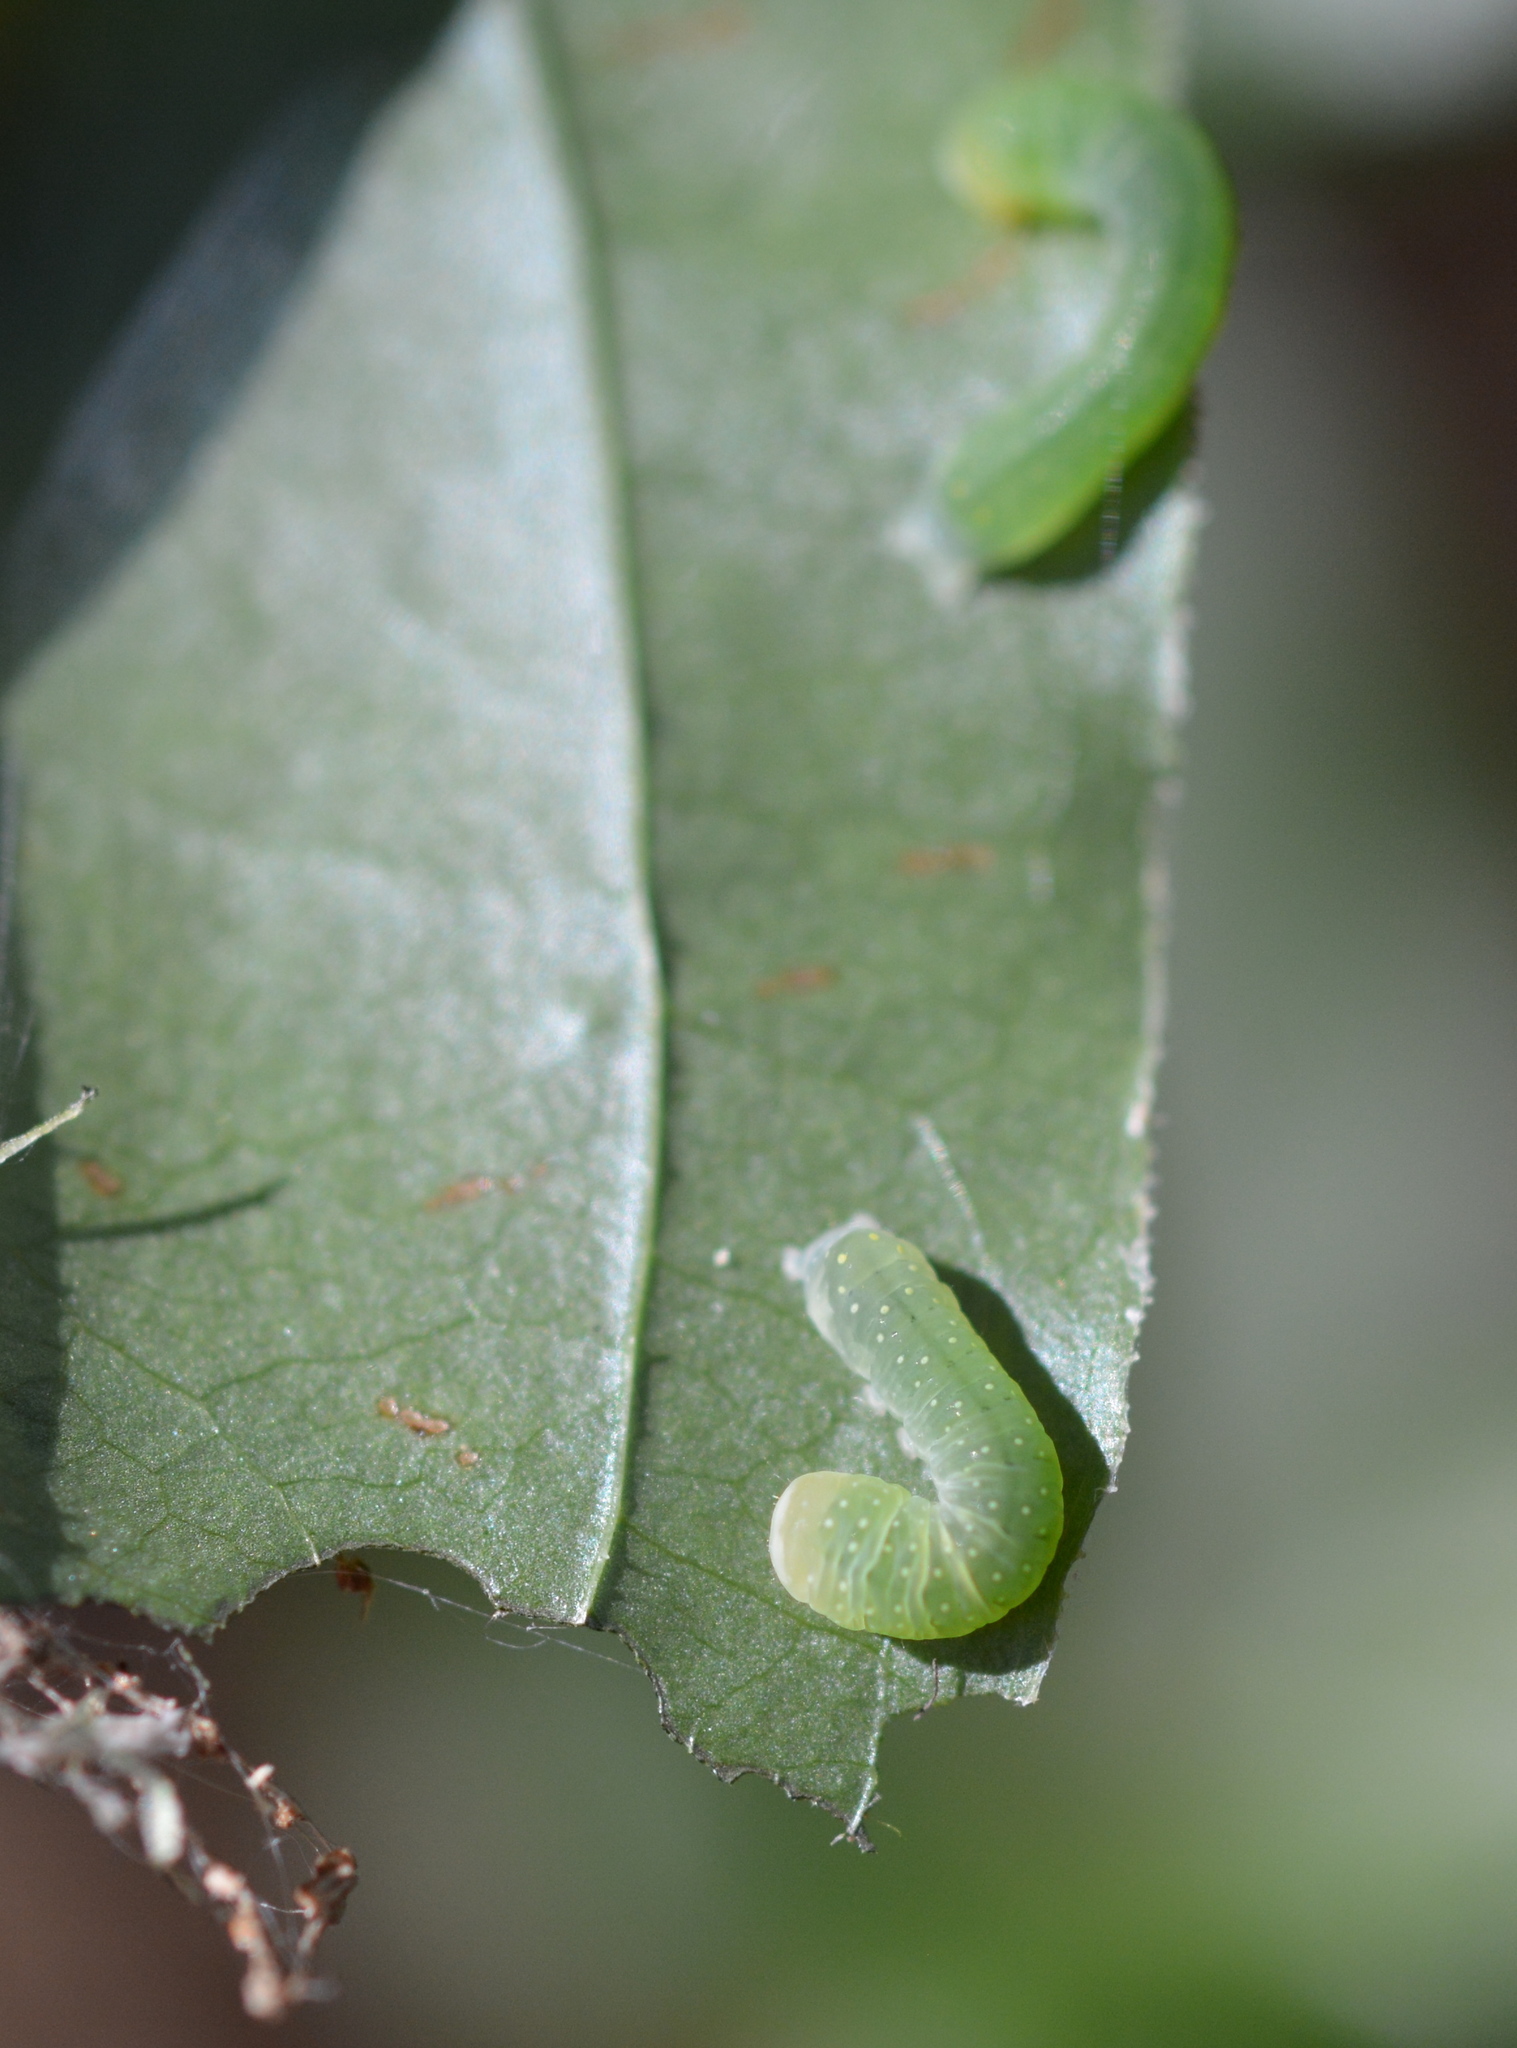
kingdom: Animalia
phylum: Arthropoda
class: Insecta
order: Lepidoptera
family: Noctuidae
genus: Phosphila
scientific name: Phosphila miselioides
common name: Spotted phosphila moth
